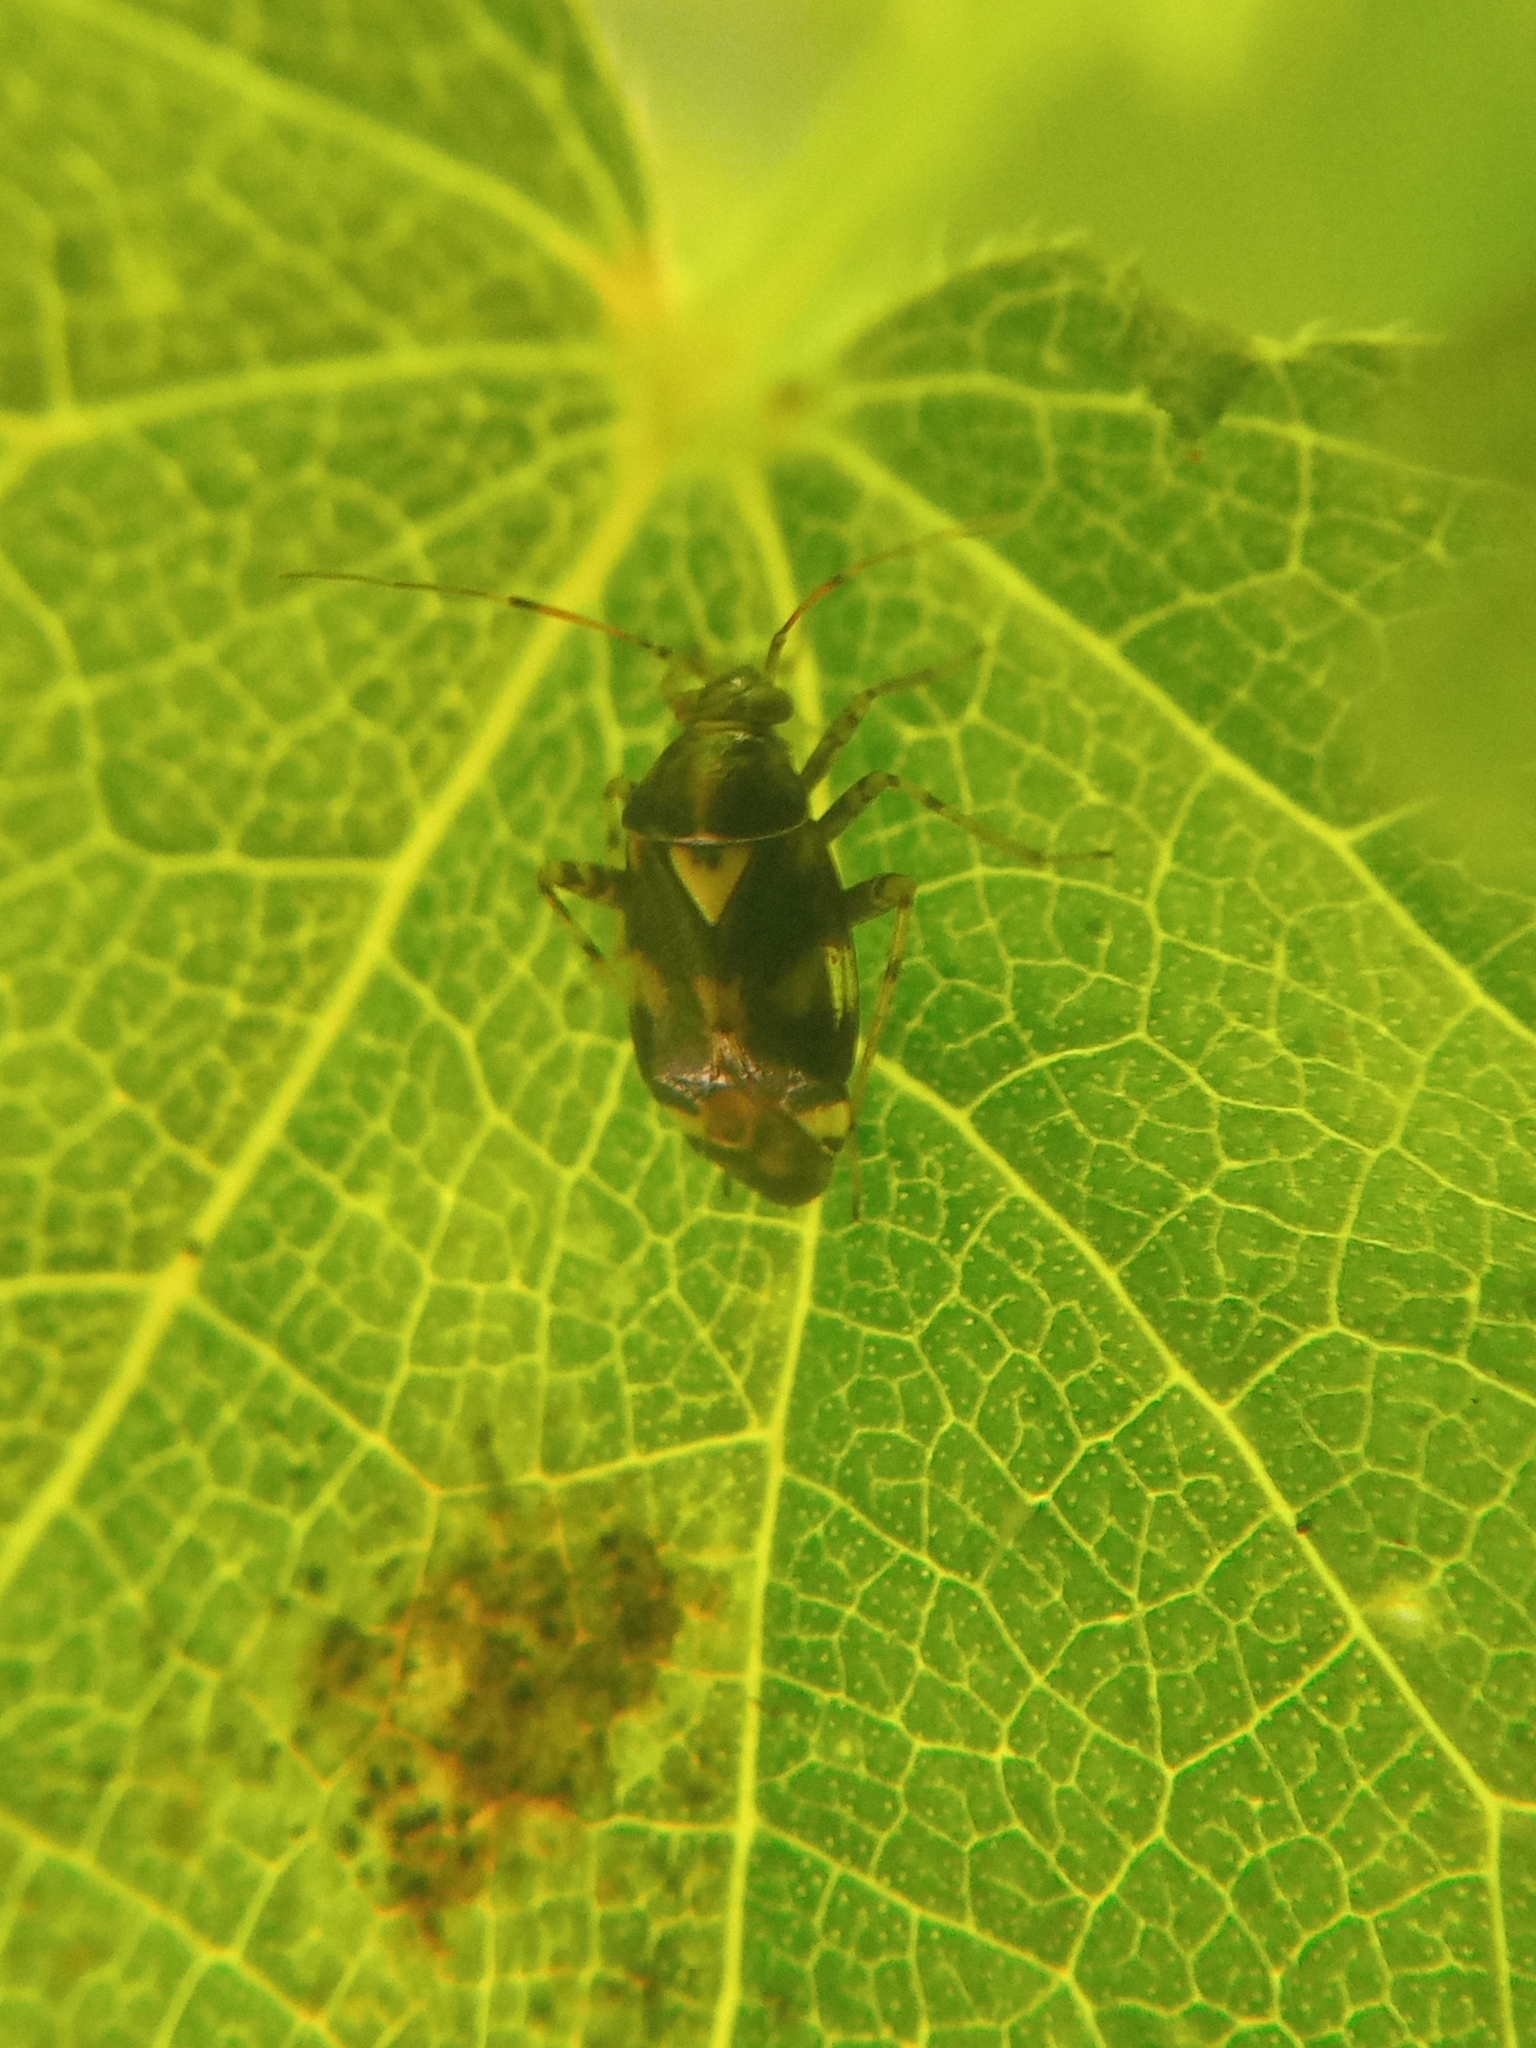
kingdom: Animalia
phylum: Arthropoda
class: Insecta
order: Hemiptera
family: Miridae
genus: Liocoris
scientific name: Liocoris tripustulatus
